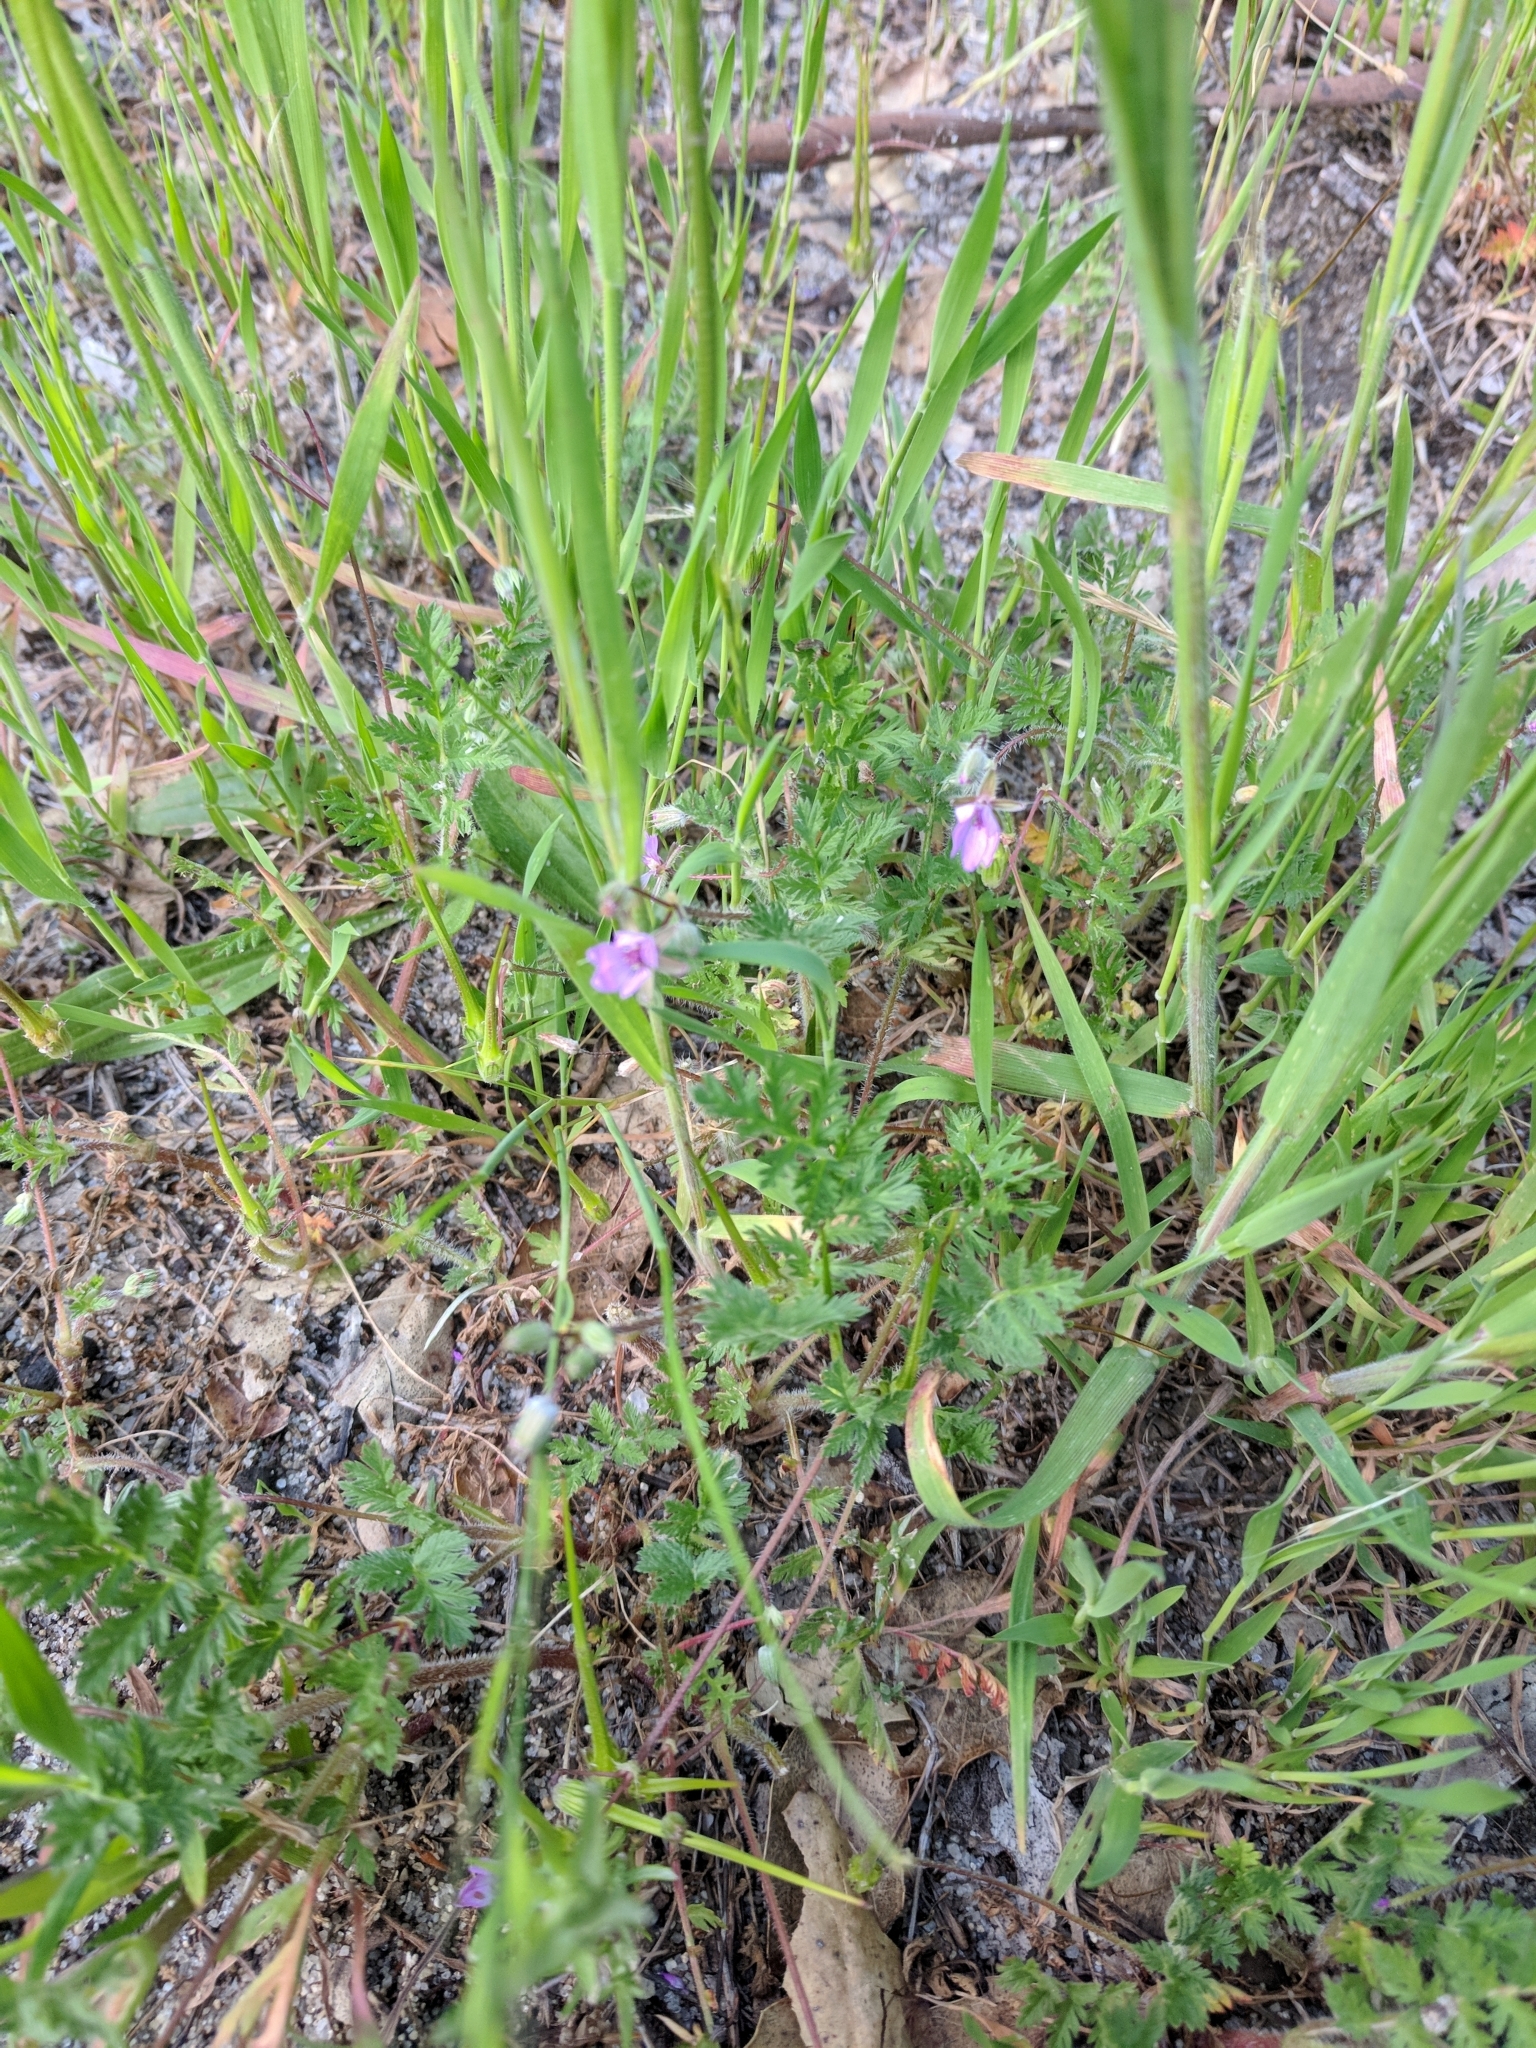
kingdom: Plantae
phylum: Tracheophyta
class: Magnoliopsida
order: Geraniales
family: Geraniaceae
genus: Erodium
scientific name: Erodium cicutarium
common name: Common stork's-bill
